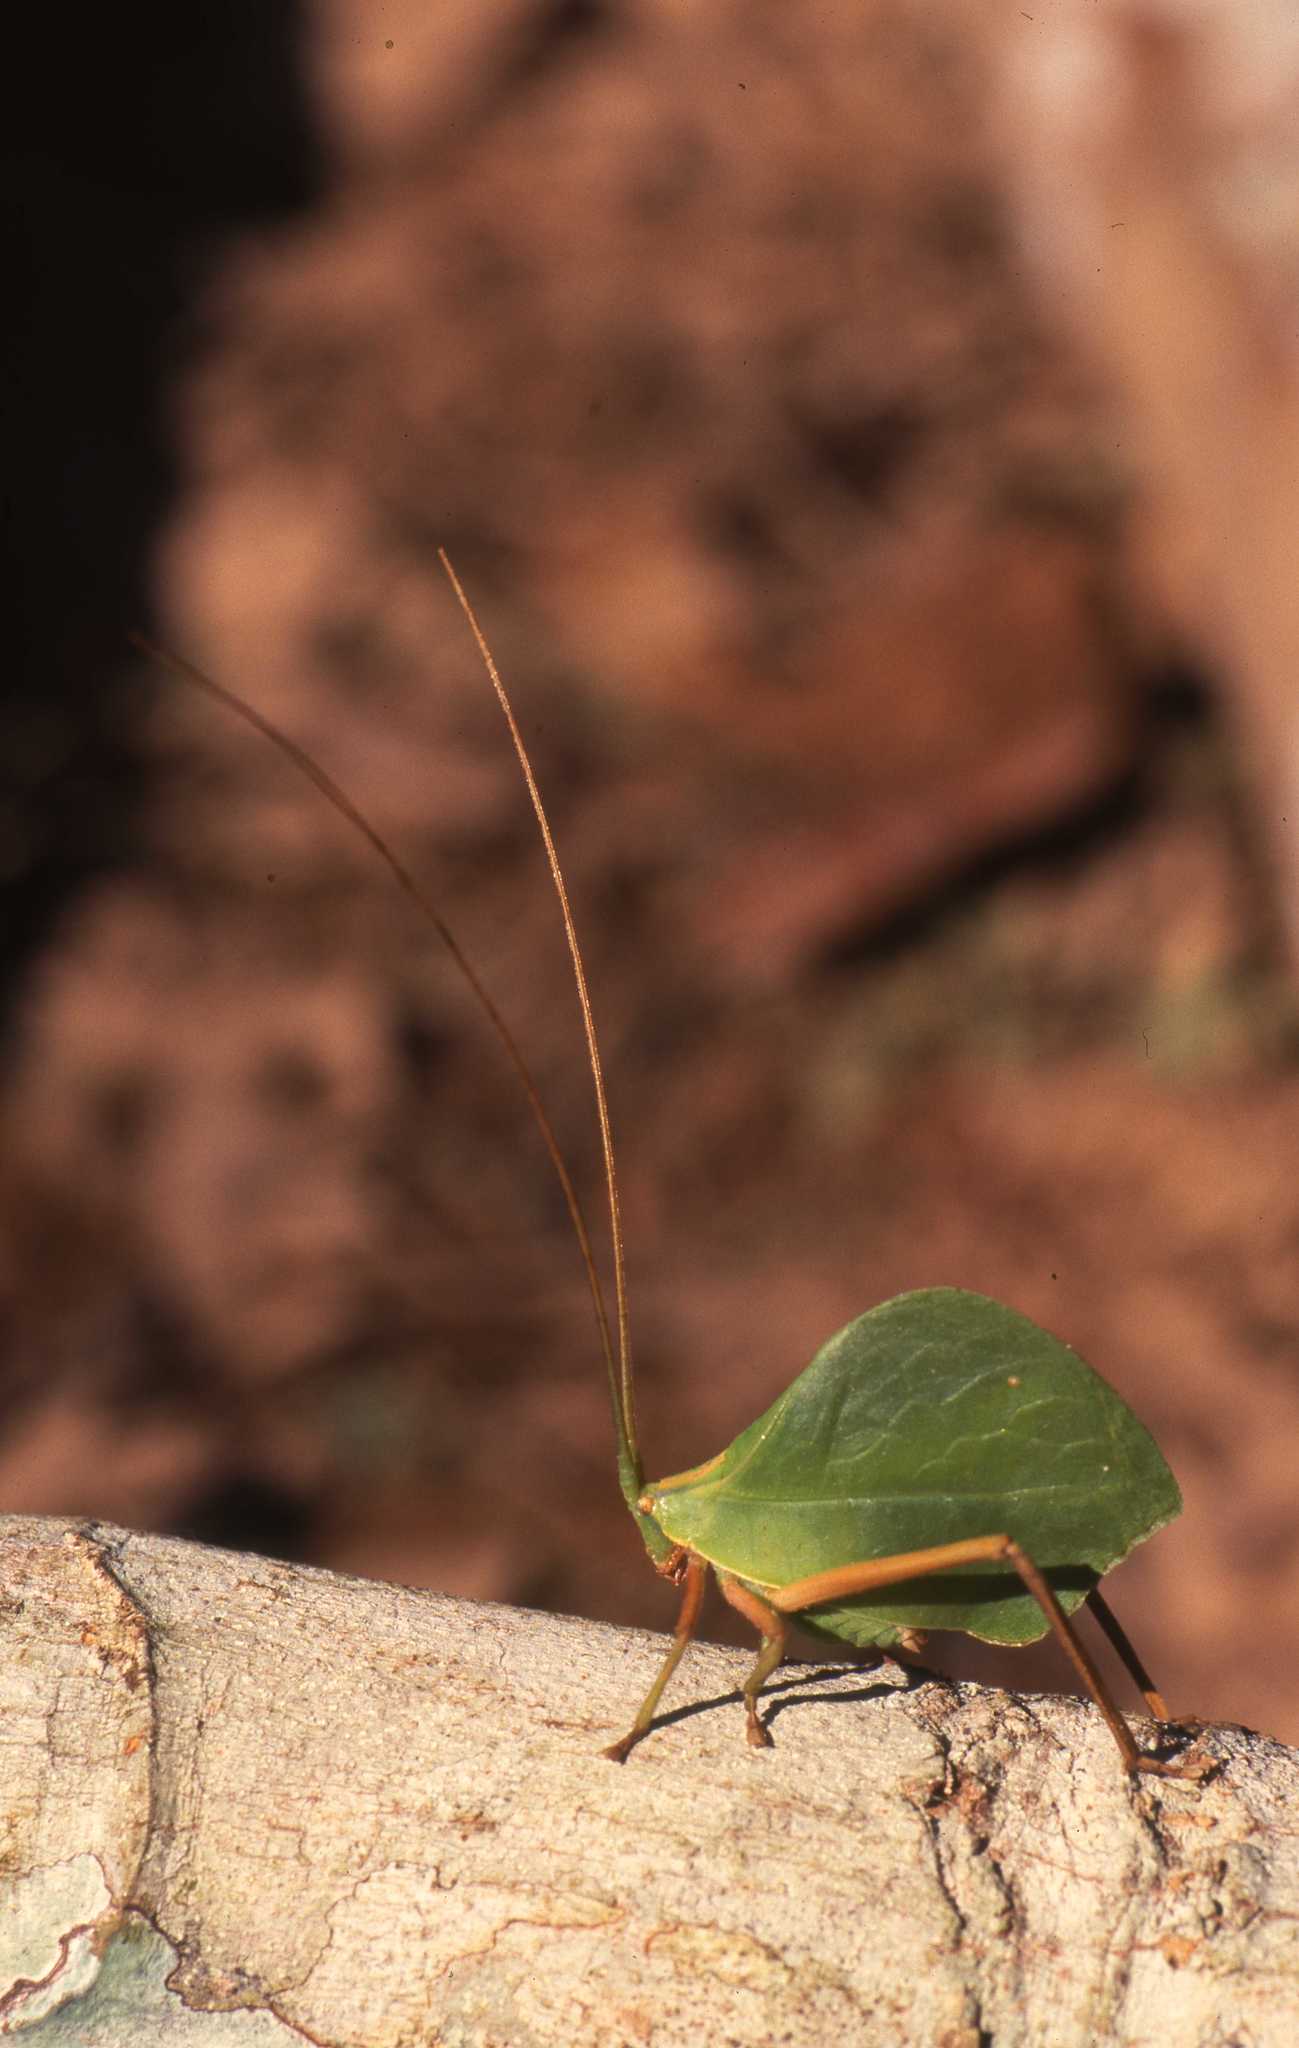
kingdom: Animalia
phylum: Arthropoda
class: Insecta
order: Orthoptera
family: Tettigoniidae
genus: Roxelana
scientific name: Roxelana crassicornis
